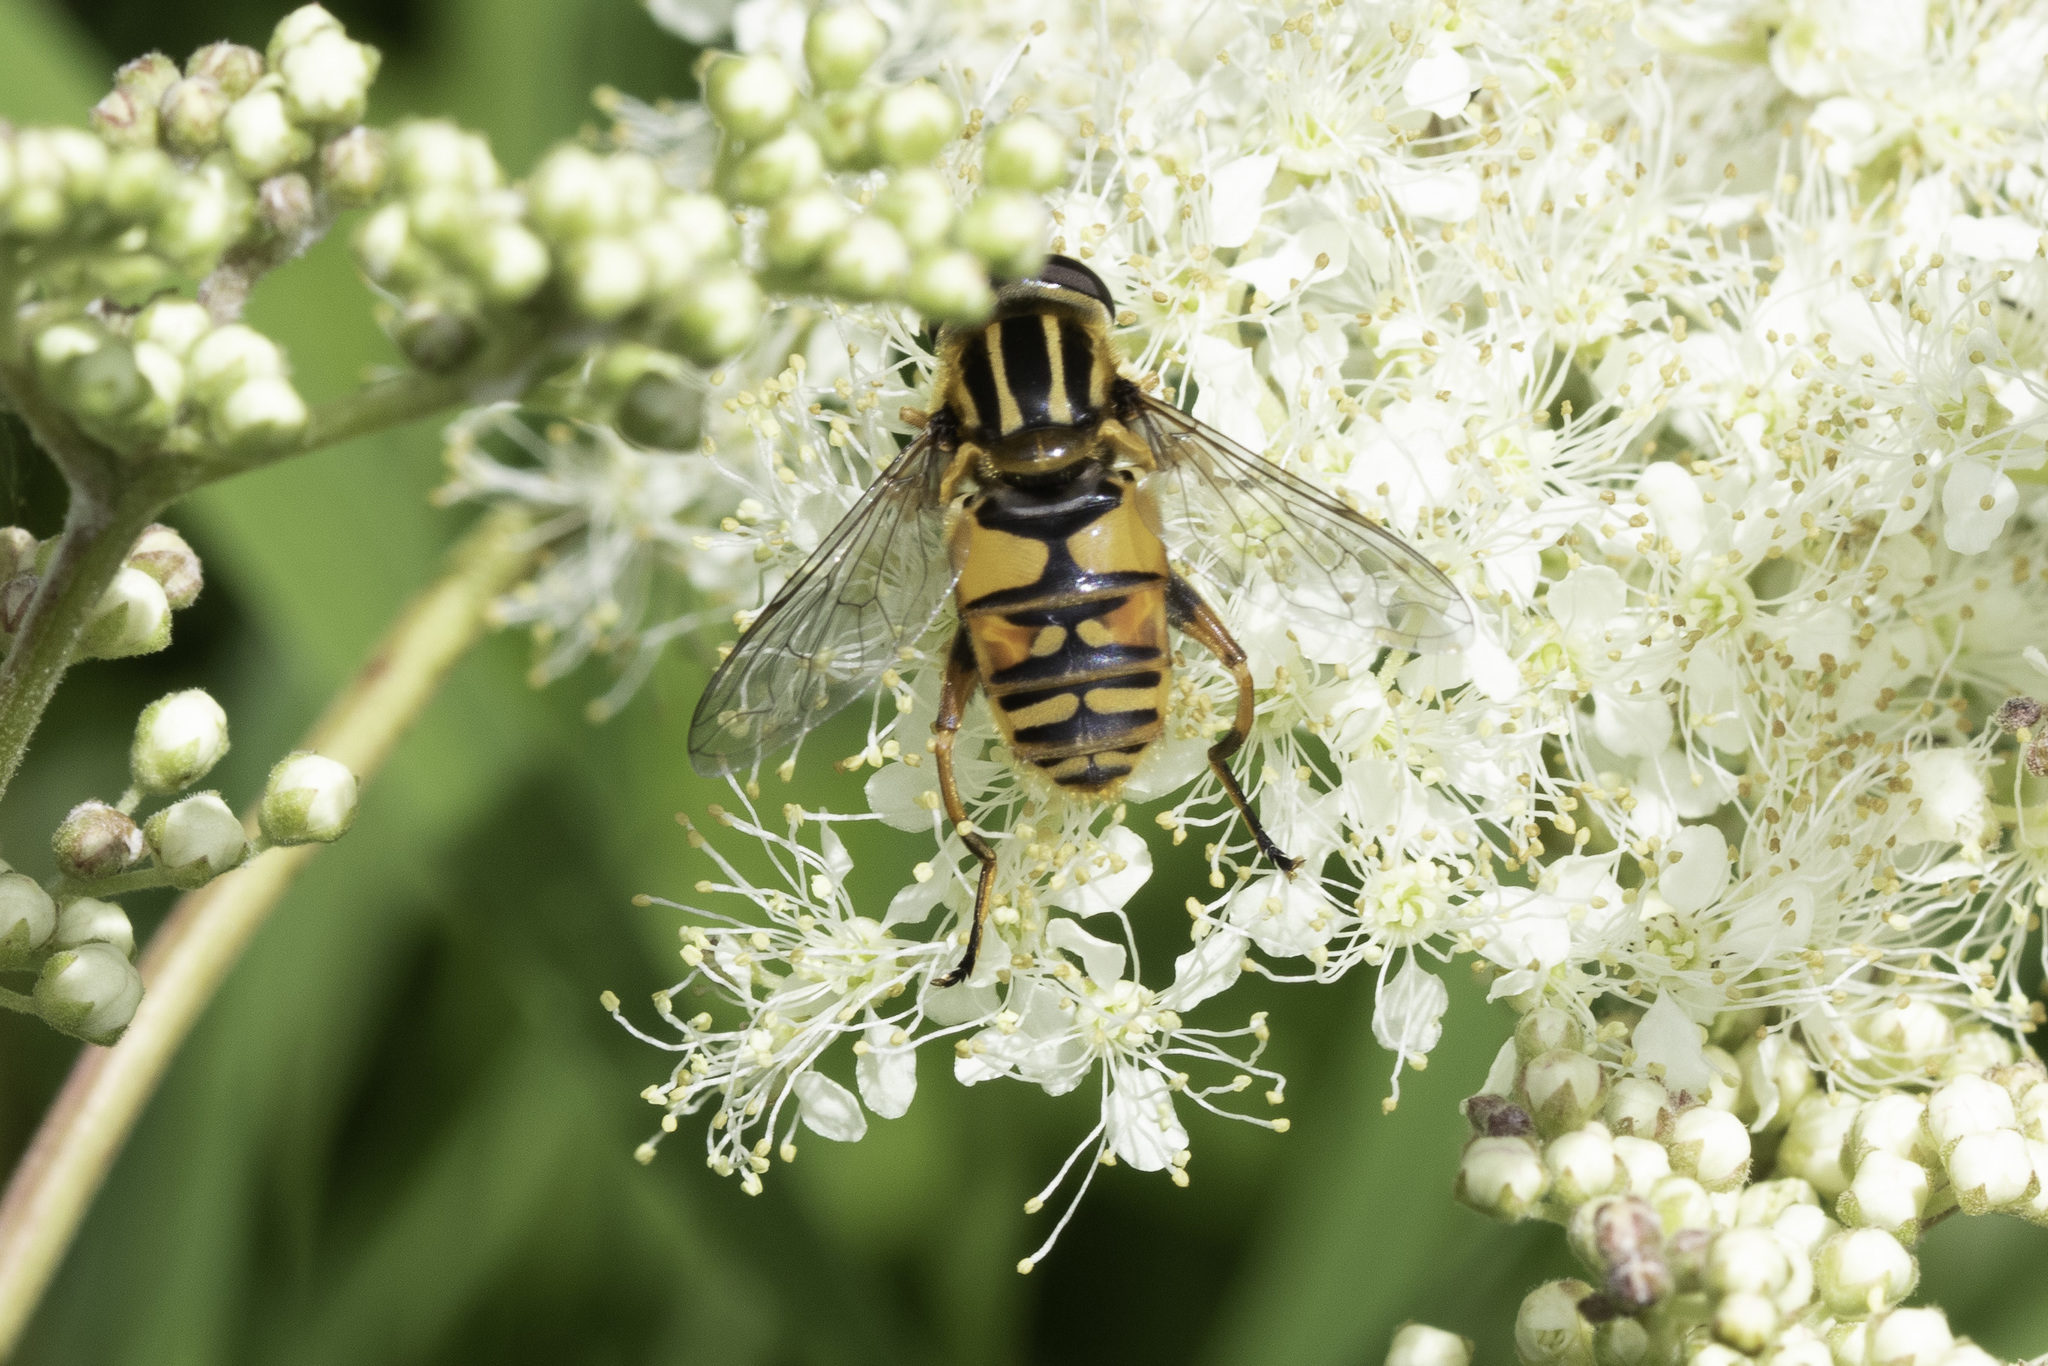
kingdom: Animalia
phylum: Arthropoda
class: Insecta
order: Diptera
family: Syrphidae
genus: Helophilus
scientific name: Helophilus pendulus
